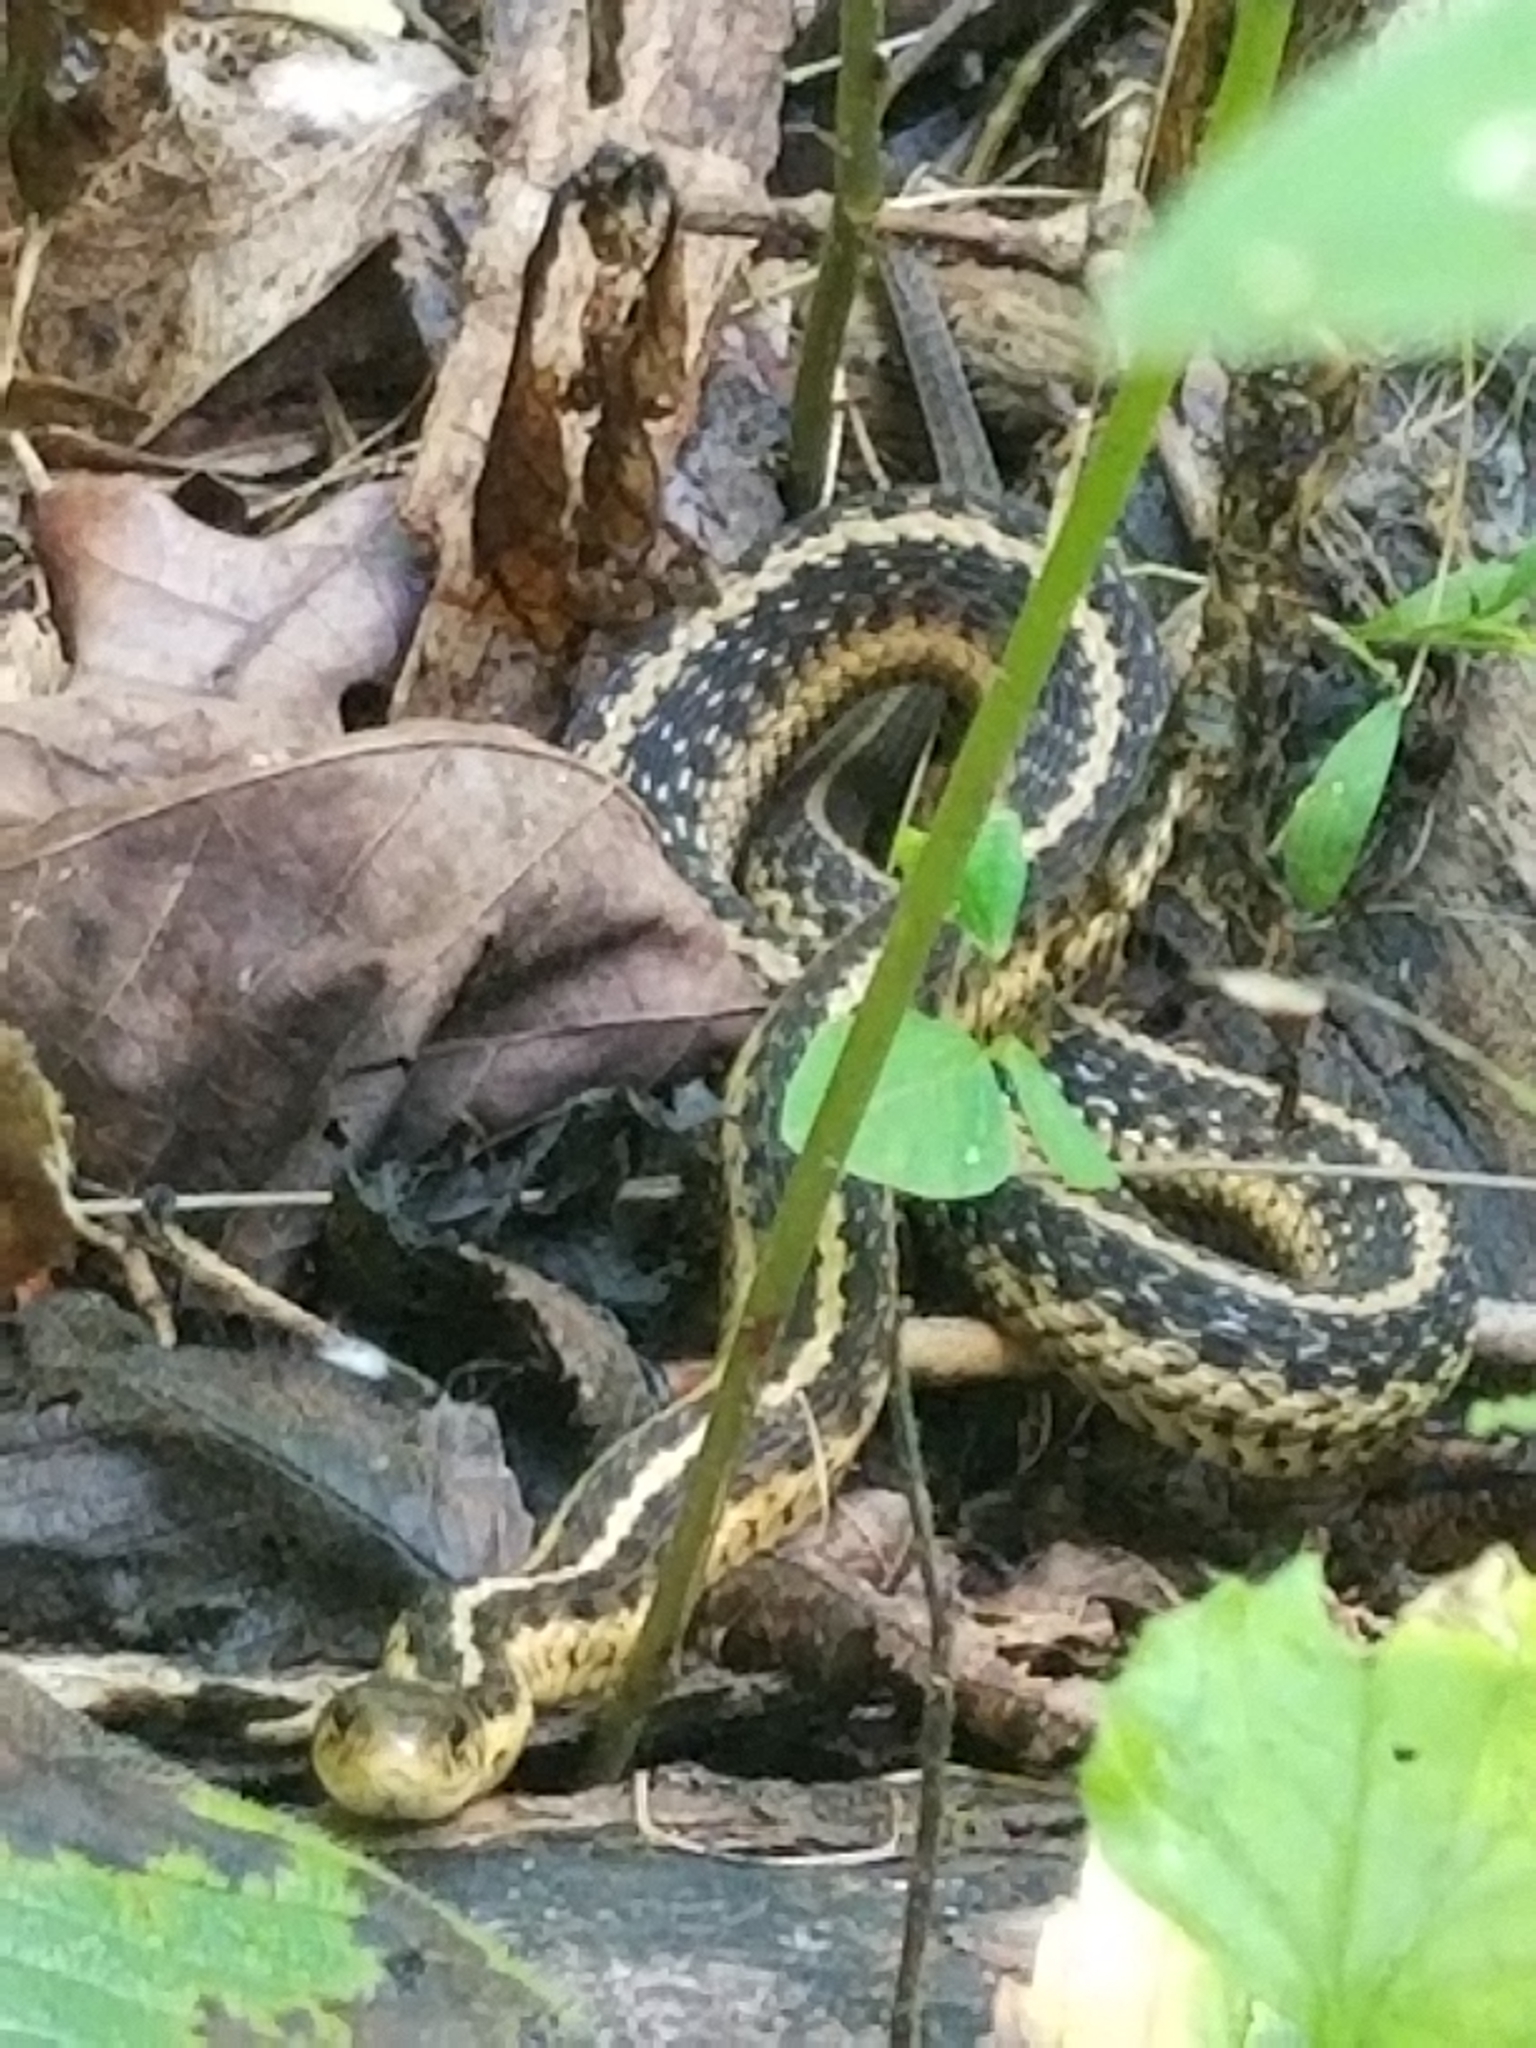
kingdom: Animalia
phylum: Chordata
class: Squamata
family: Colubridae
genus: Thamnophis
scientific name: Thamnophis sirtalis
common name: Common garter snake
